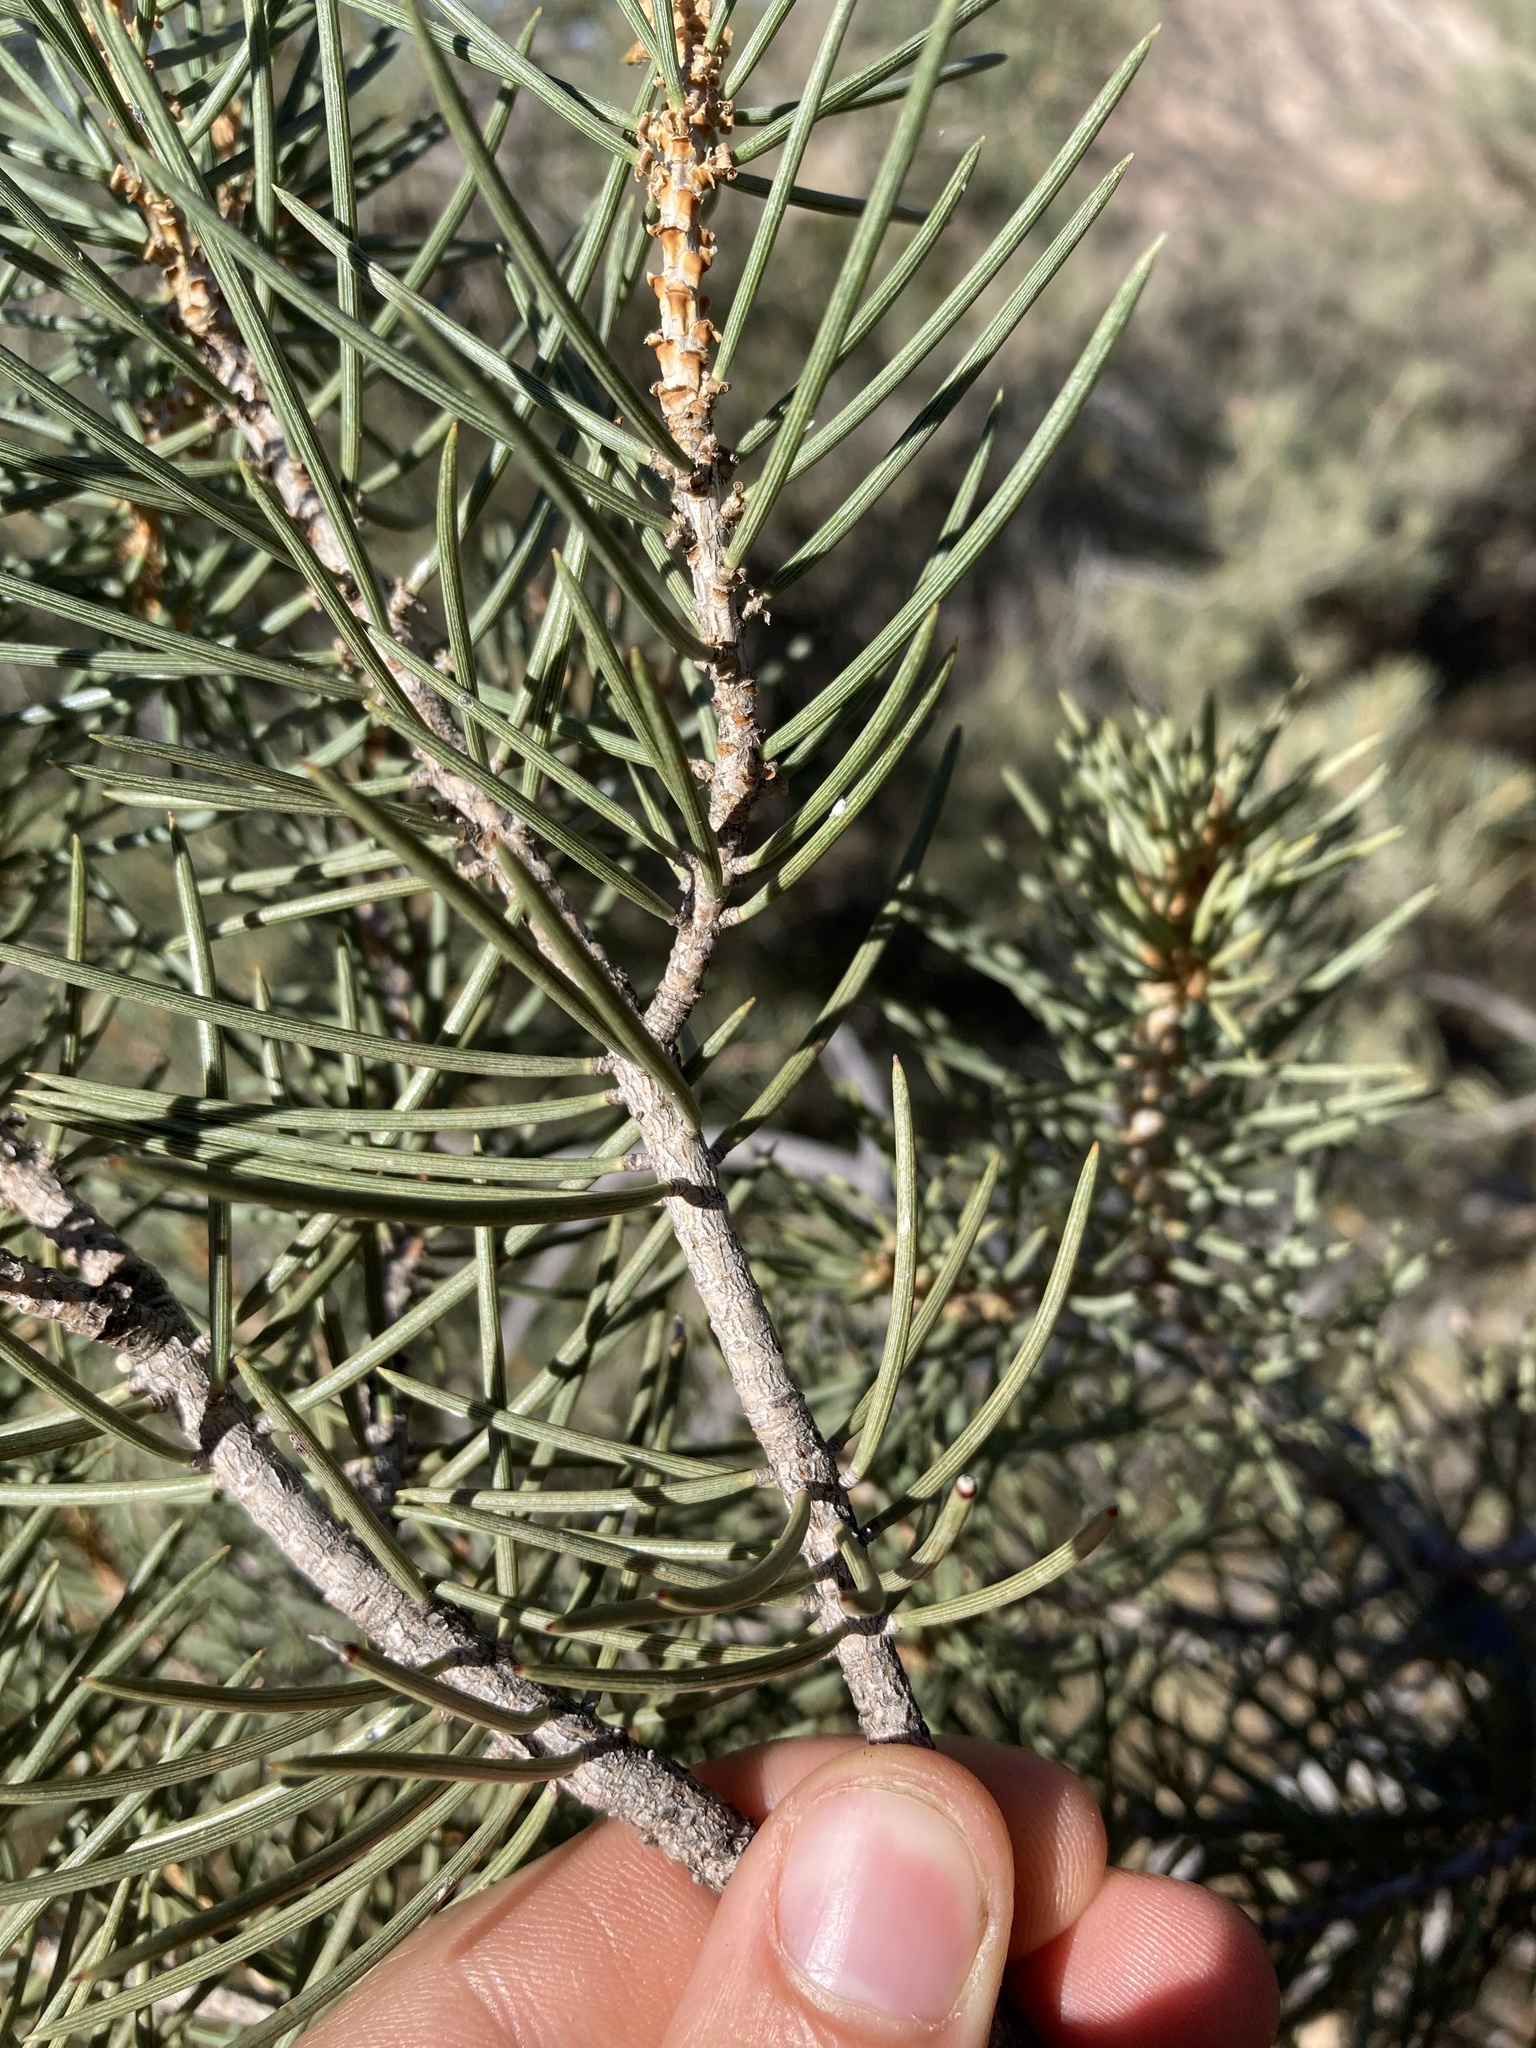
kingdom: Plantae
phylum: Tracheophyta
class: Pinopsida
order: Pinales
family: Pinaceae
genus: Pinus
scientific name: Pinus monophylla
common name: One-leaved nut pine
